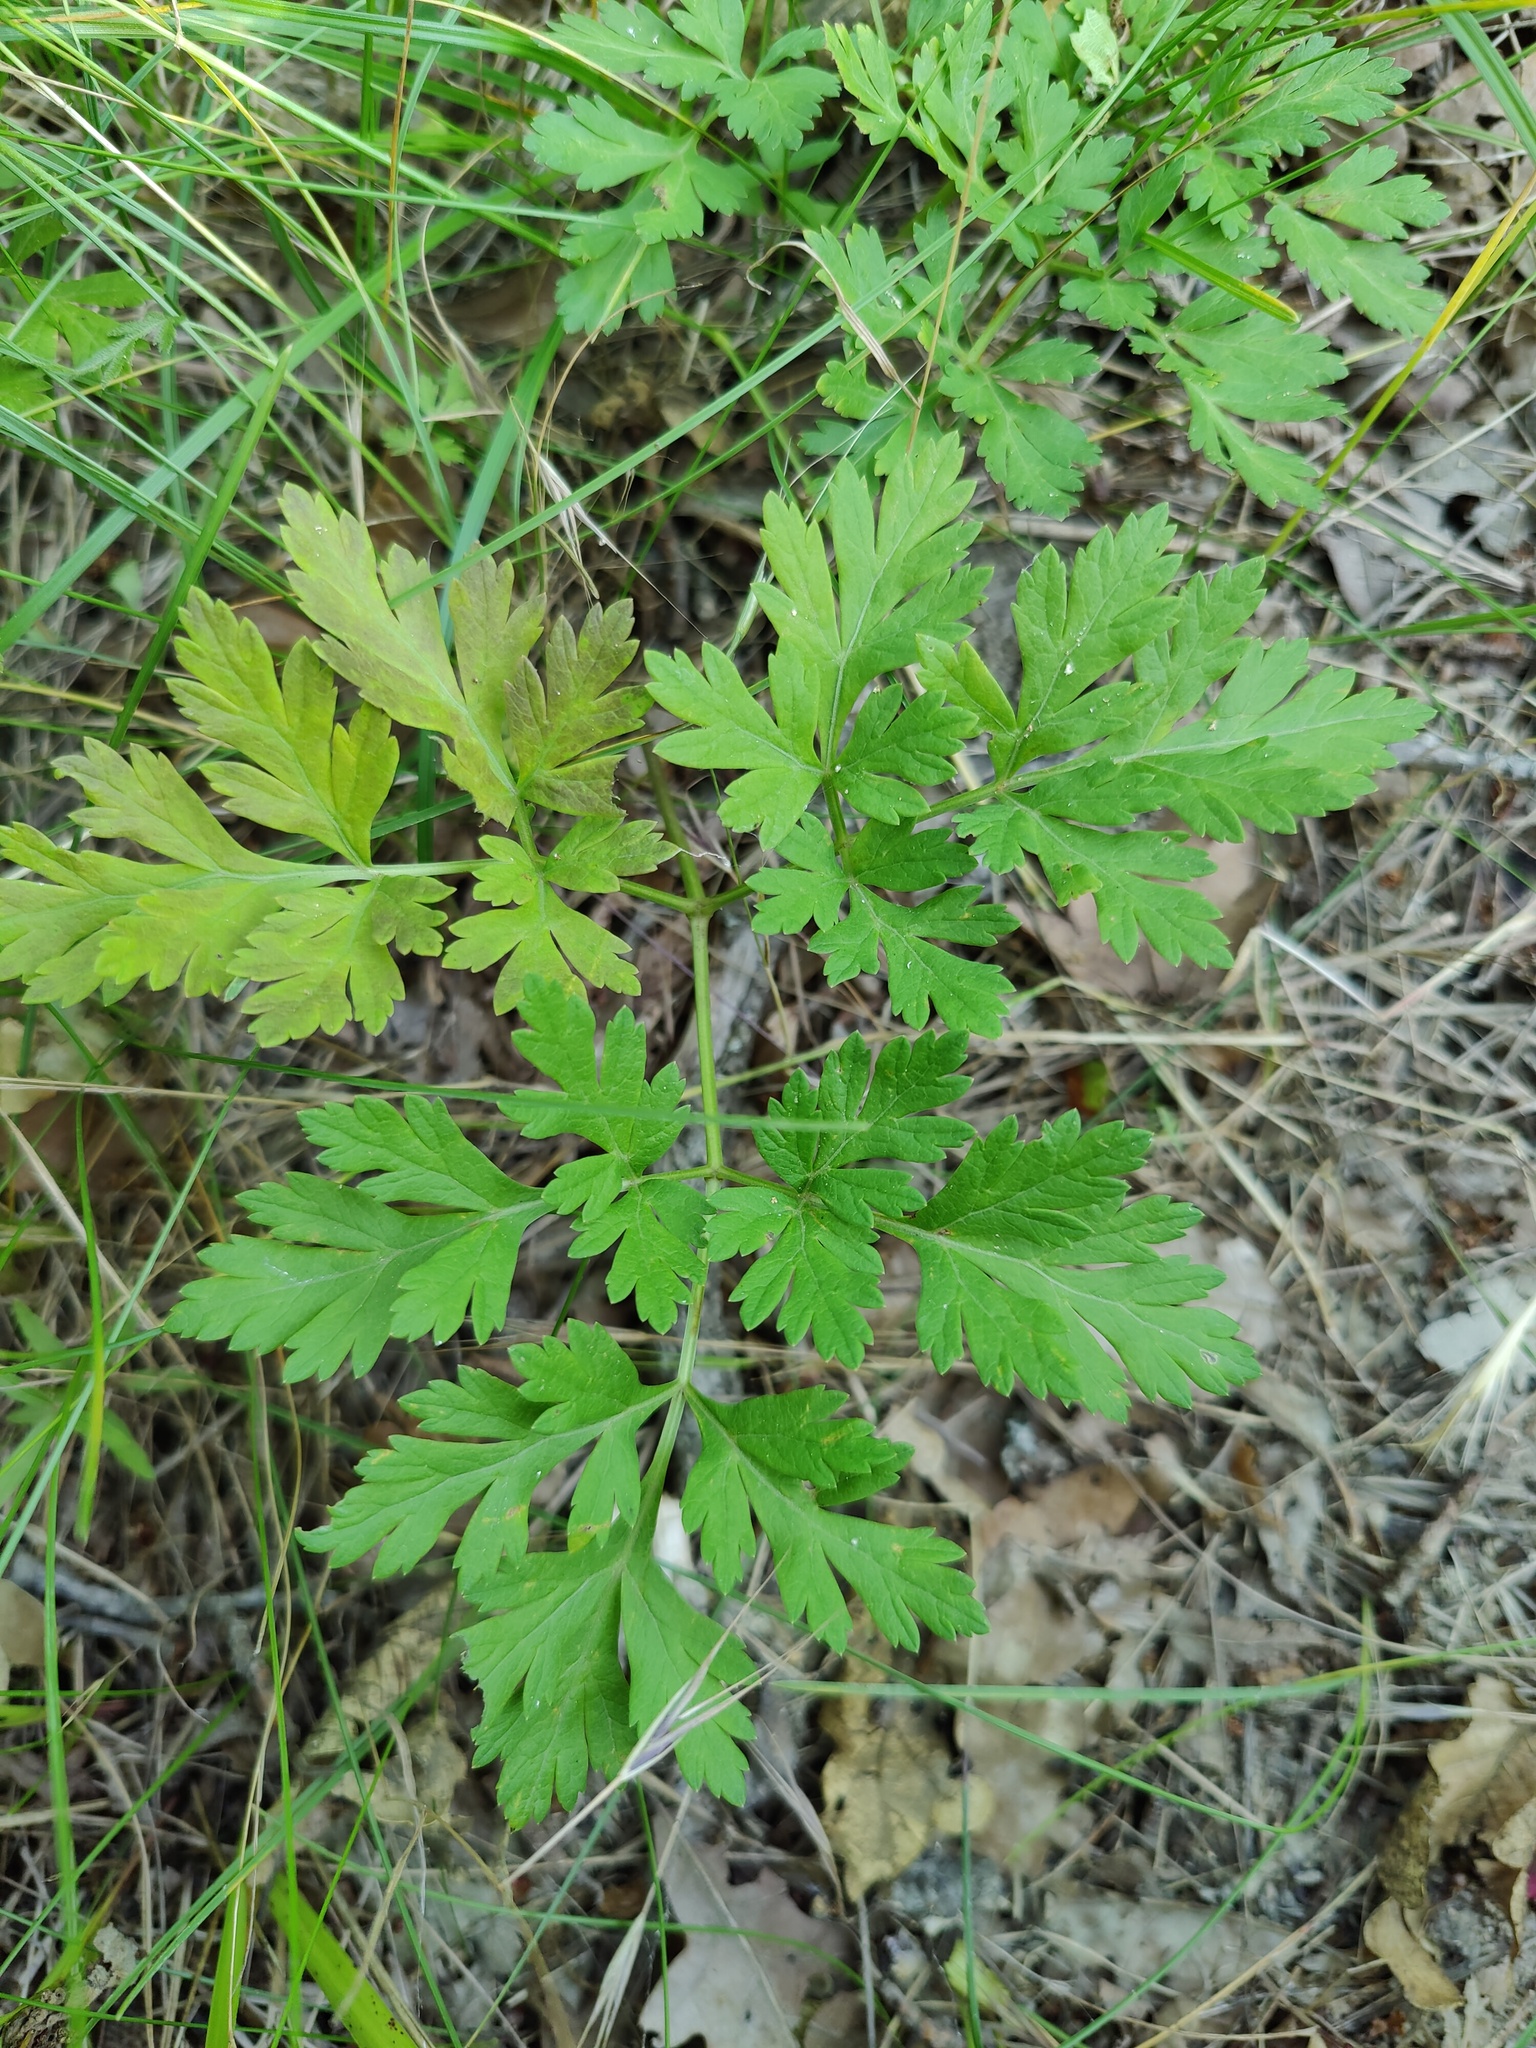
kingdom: Plantae
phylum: Tracheophyta
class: Magnoliopsida
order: Apiales
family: Apiaceae
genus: Physospermum
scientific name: Physospermum cornubiense
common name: Bladderseed
